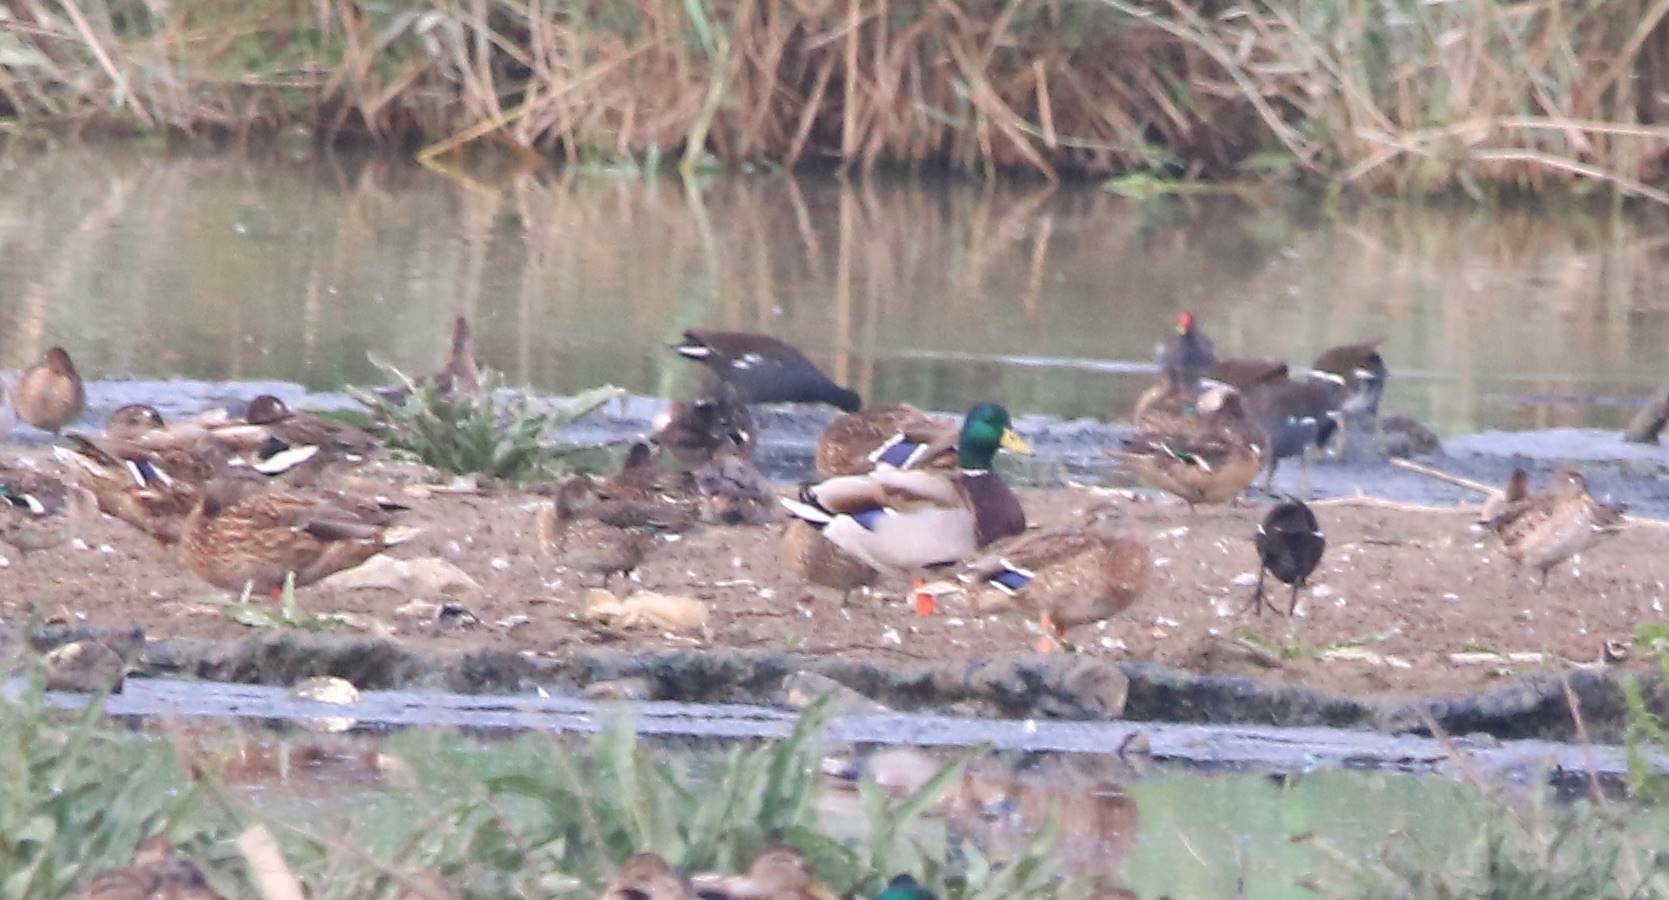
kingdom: Animalia
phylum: Chordata
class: Aves
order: Anseriformes
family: Anatidae
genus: Anas
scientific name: Anas platyrhynchos
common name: Mallard
